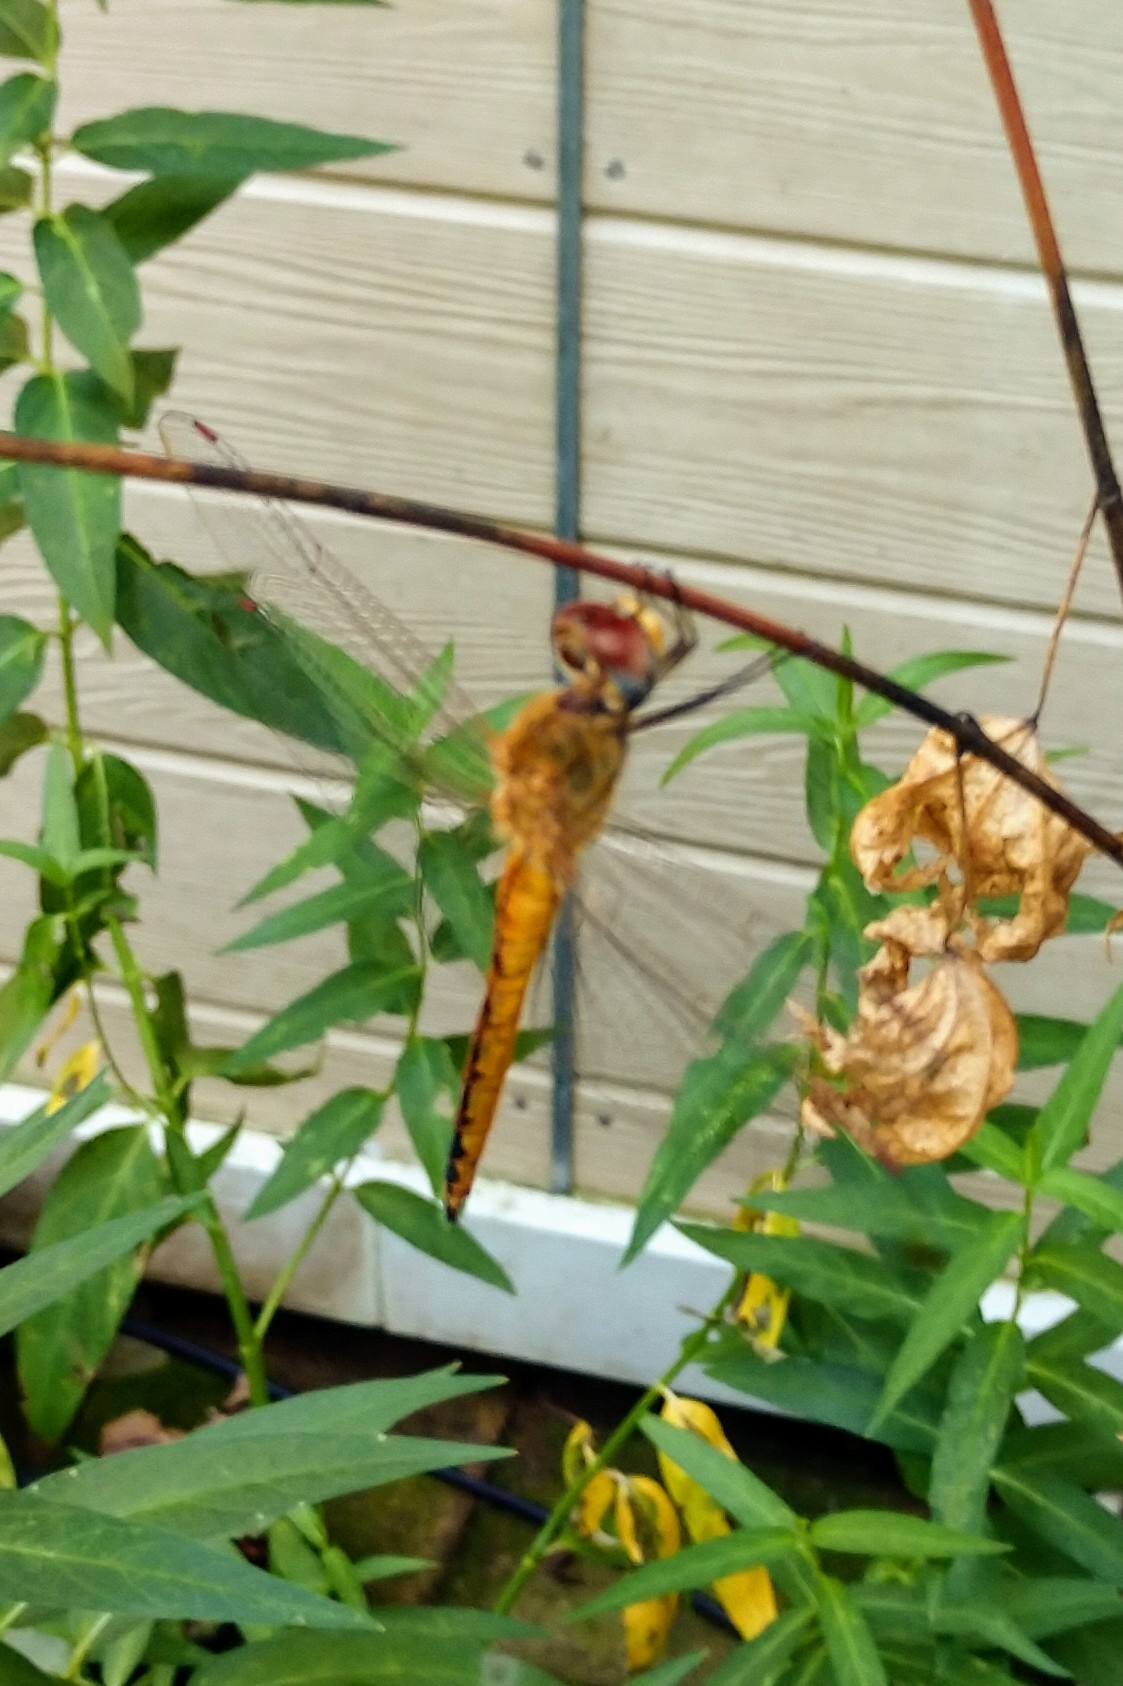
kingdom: Animalia
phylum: Arthropoda
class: Insecta
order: Odonata
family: Libellulidae
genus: Pantala
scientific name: Pantala flavescens
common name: Wandering glider
